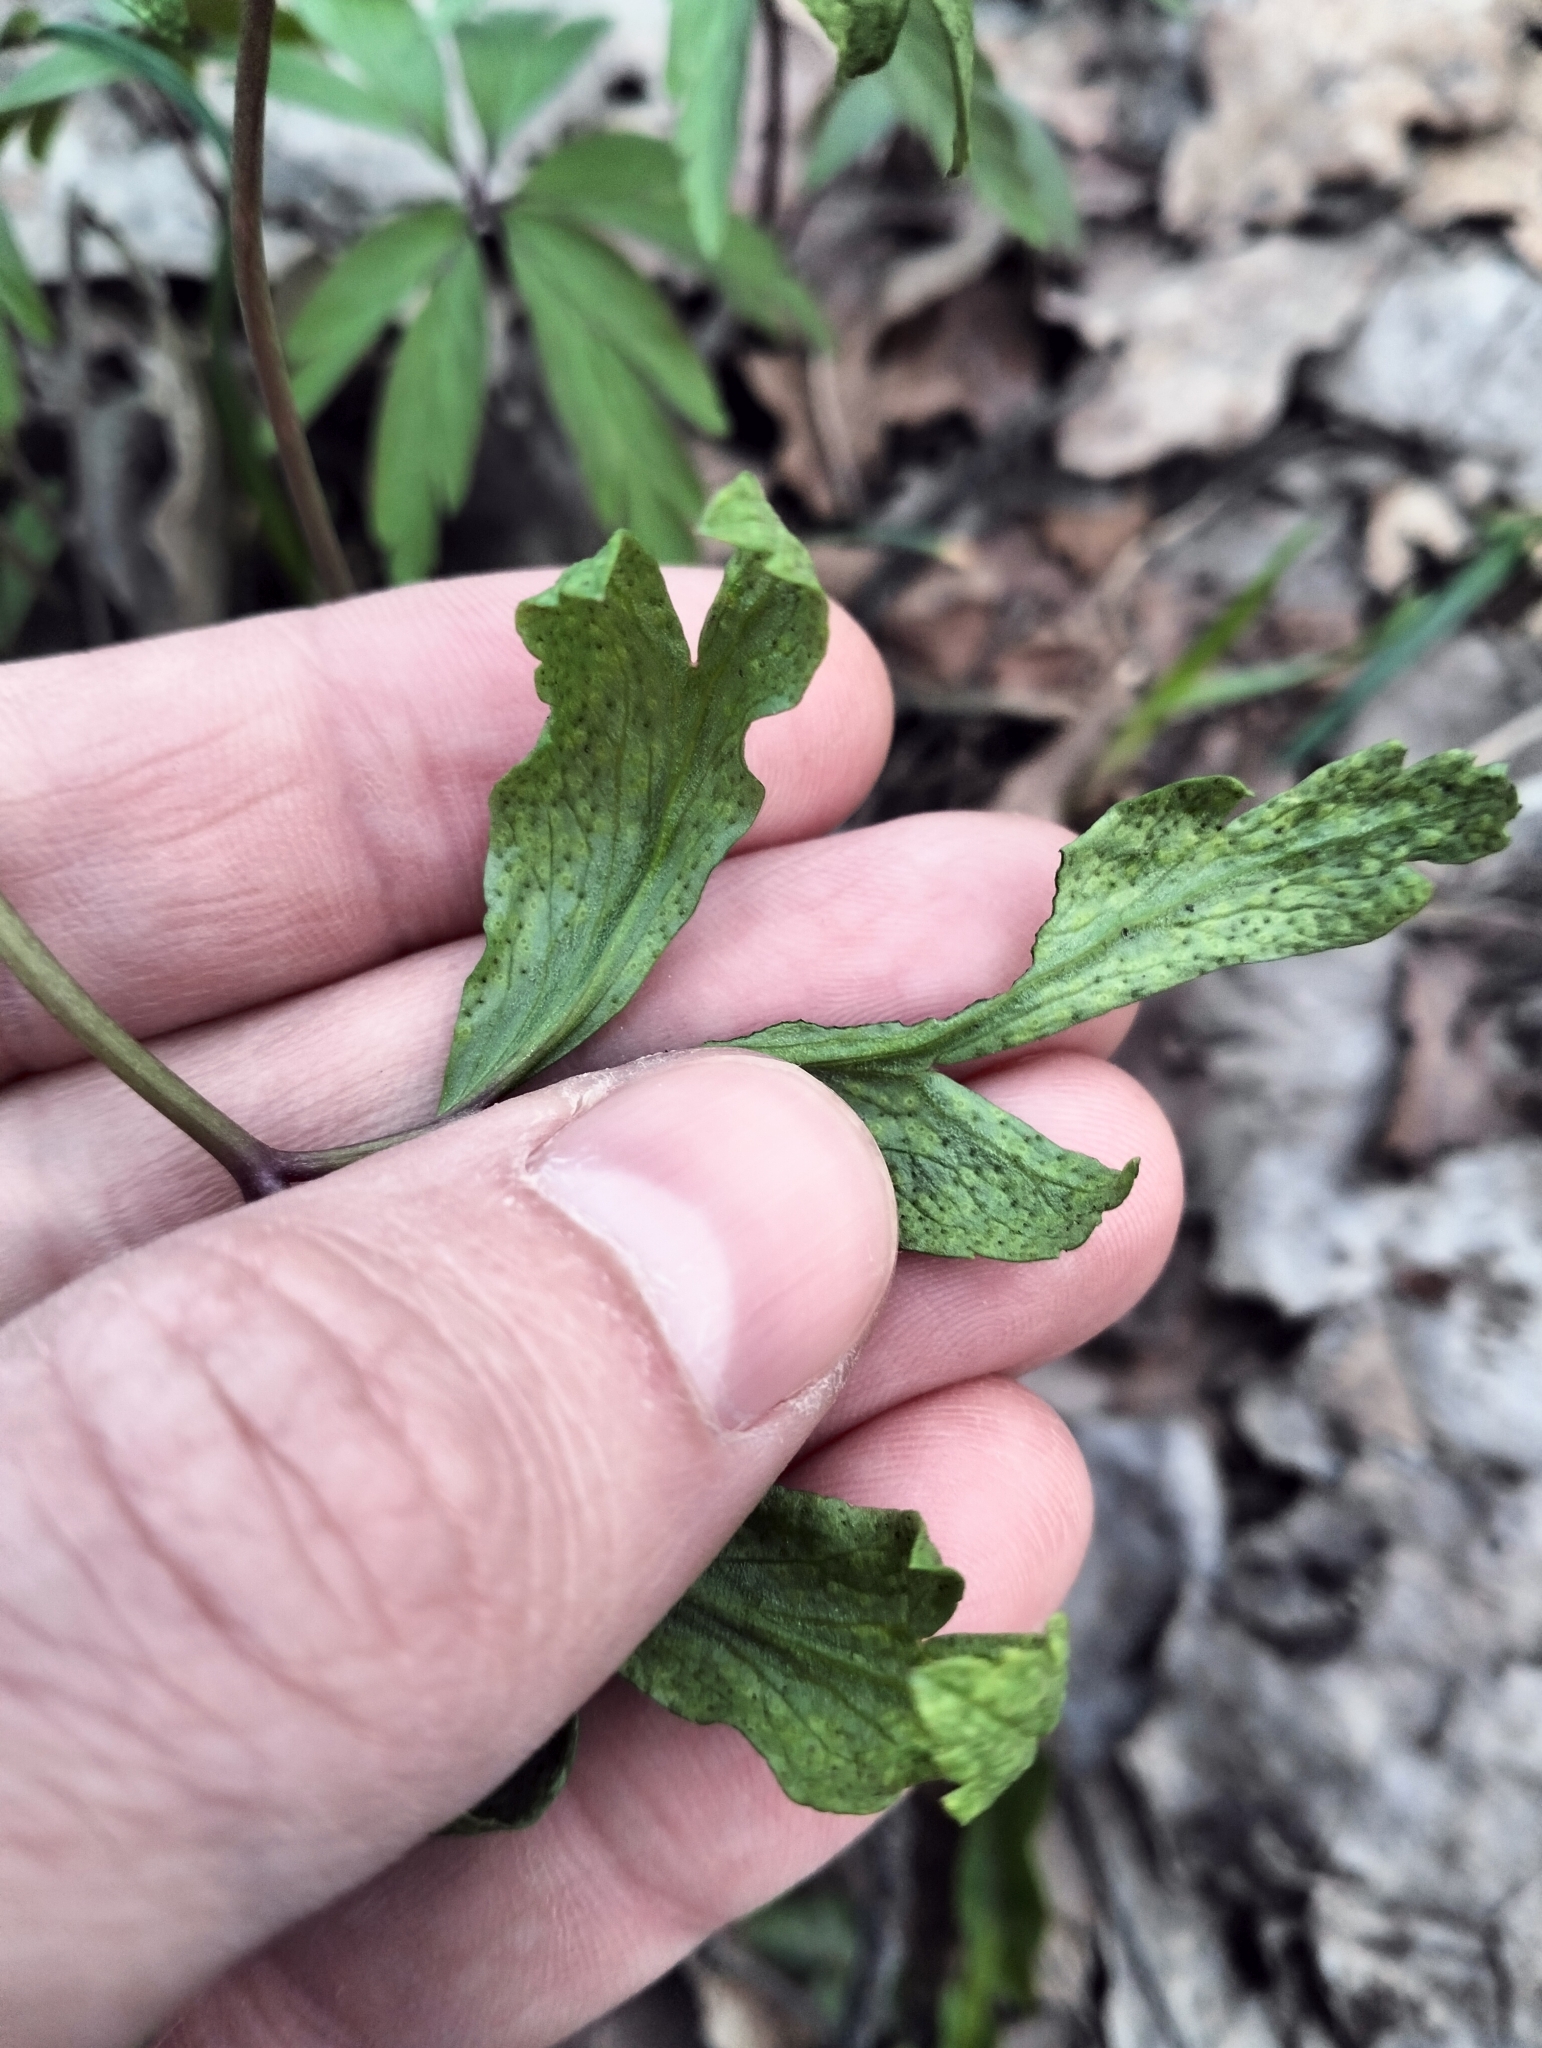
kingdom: Fungi
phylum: Basidiomycota
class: Pucciniomycetes
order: Pucciniales
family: Tranzscheliaceae
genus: Tranzschelia
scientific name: Tranzschelia pruni-spinosae
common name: Blackthorn rust
